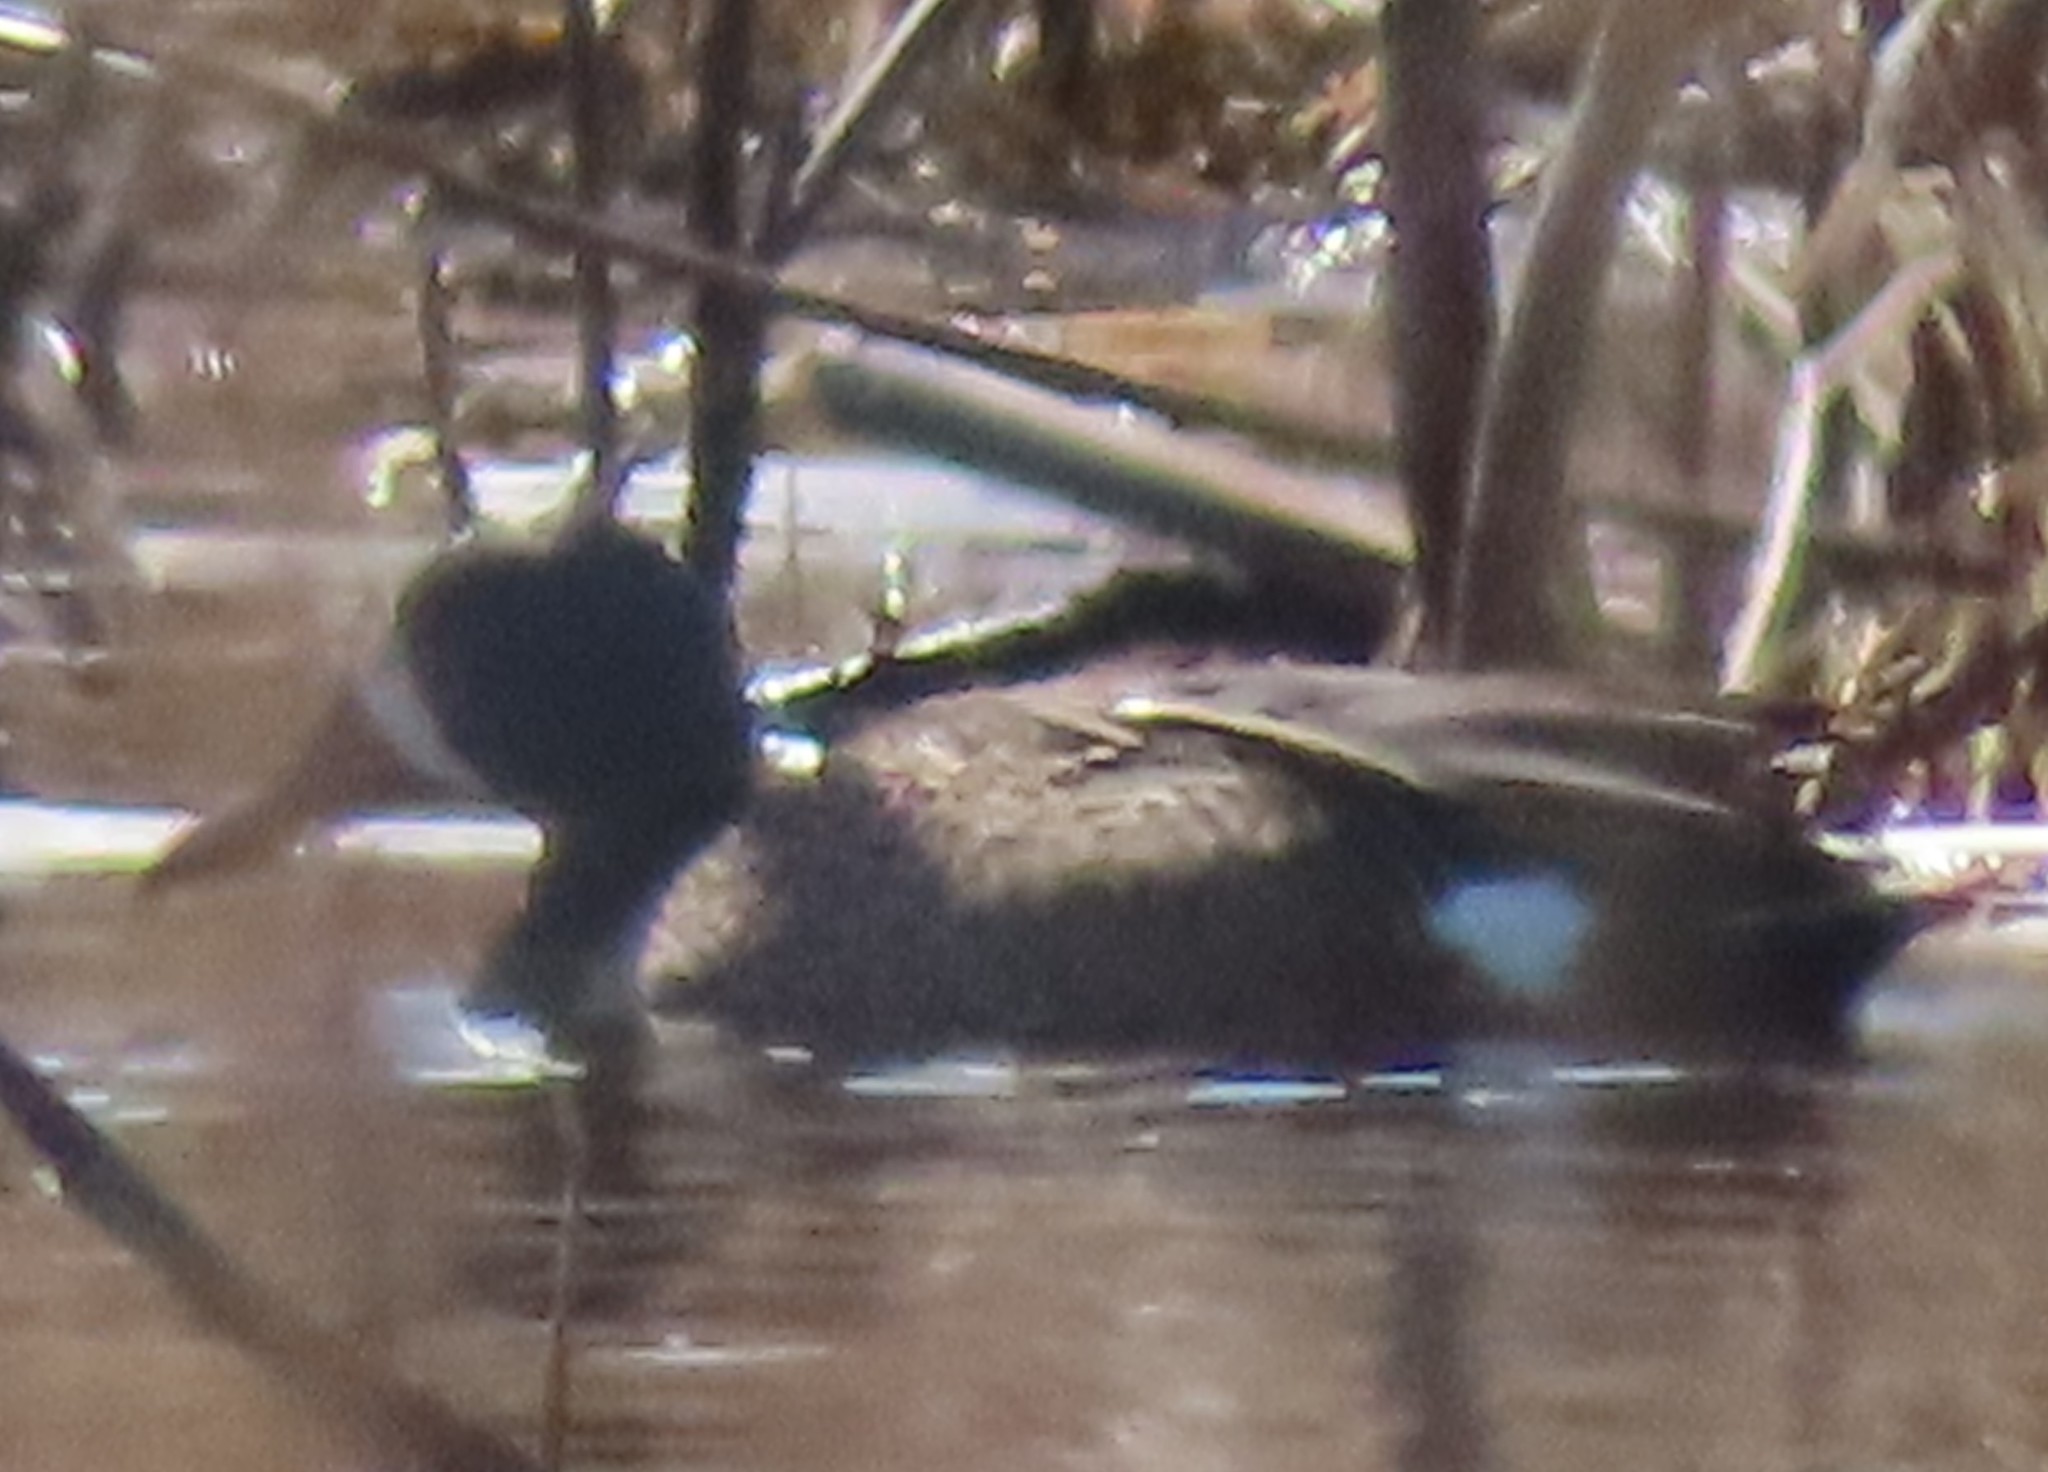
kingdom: Animalia
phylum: Chordata
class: Aves
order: Anseriformes
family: Anatidae
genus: Spatula
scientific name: Spatula discors
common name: Blue-winged teal
